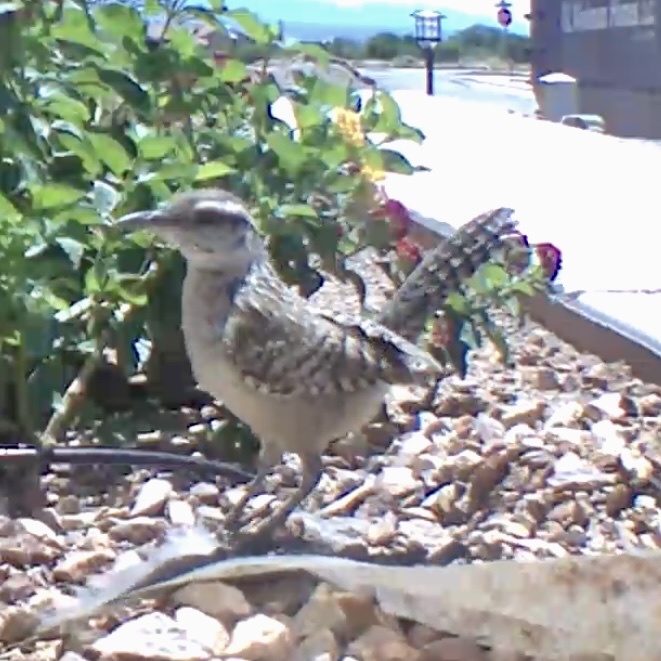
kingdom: Animalia
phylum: Chordata
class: Aves
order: Passeriformes
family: Troglodytidae
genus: Campylorhynchus
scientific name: Campylorhynchus brunneicapillus
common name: Cactus wren
